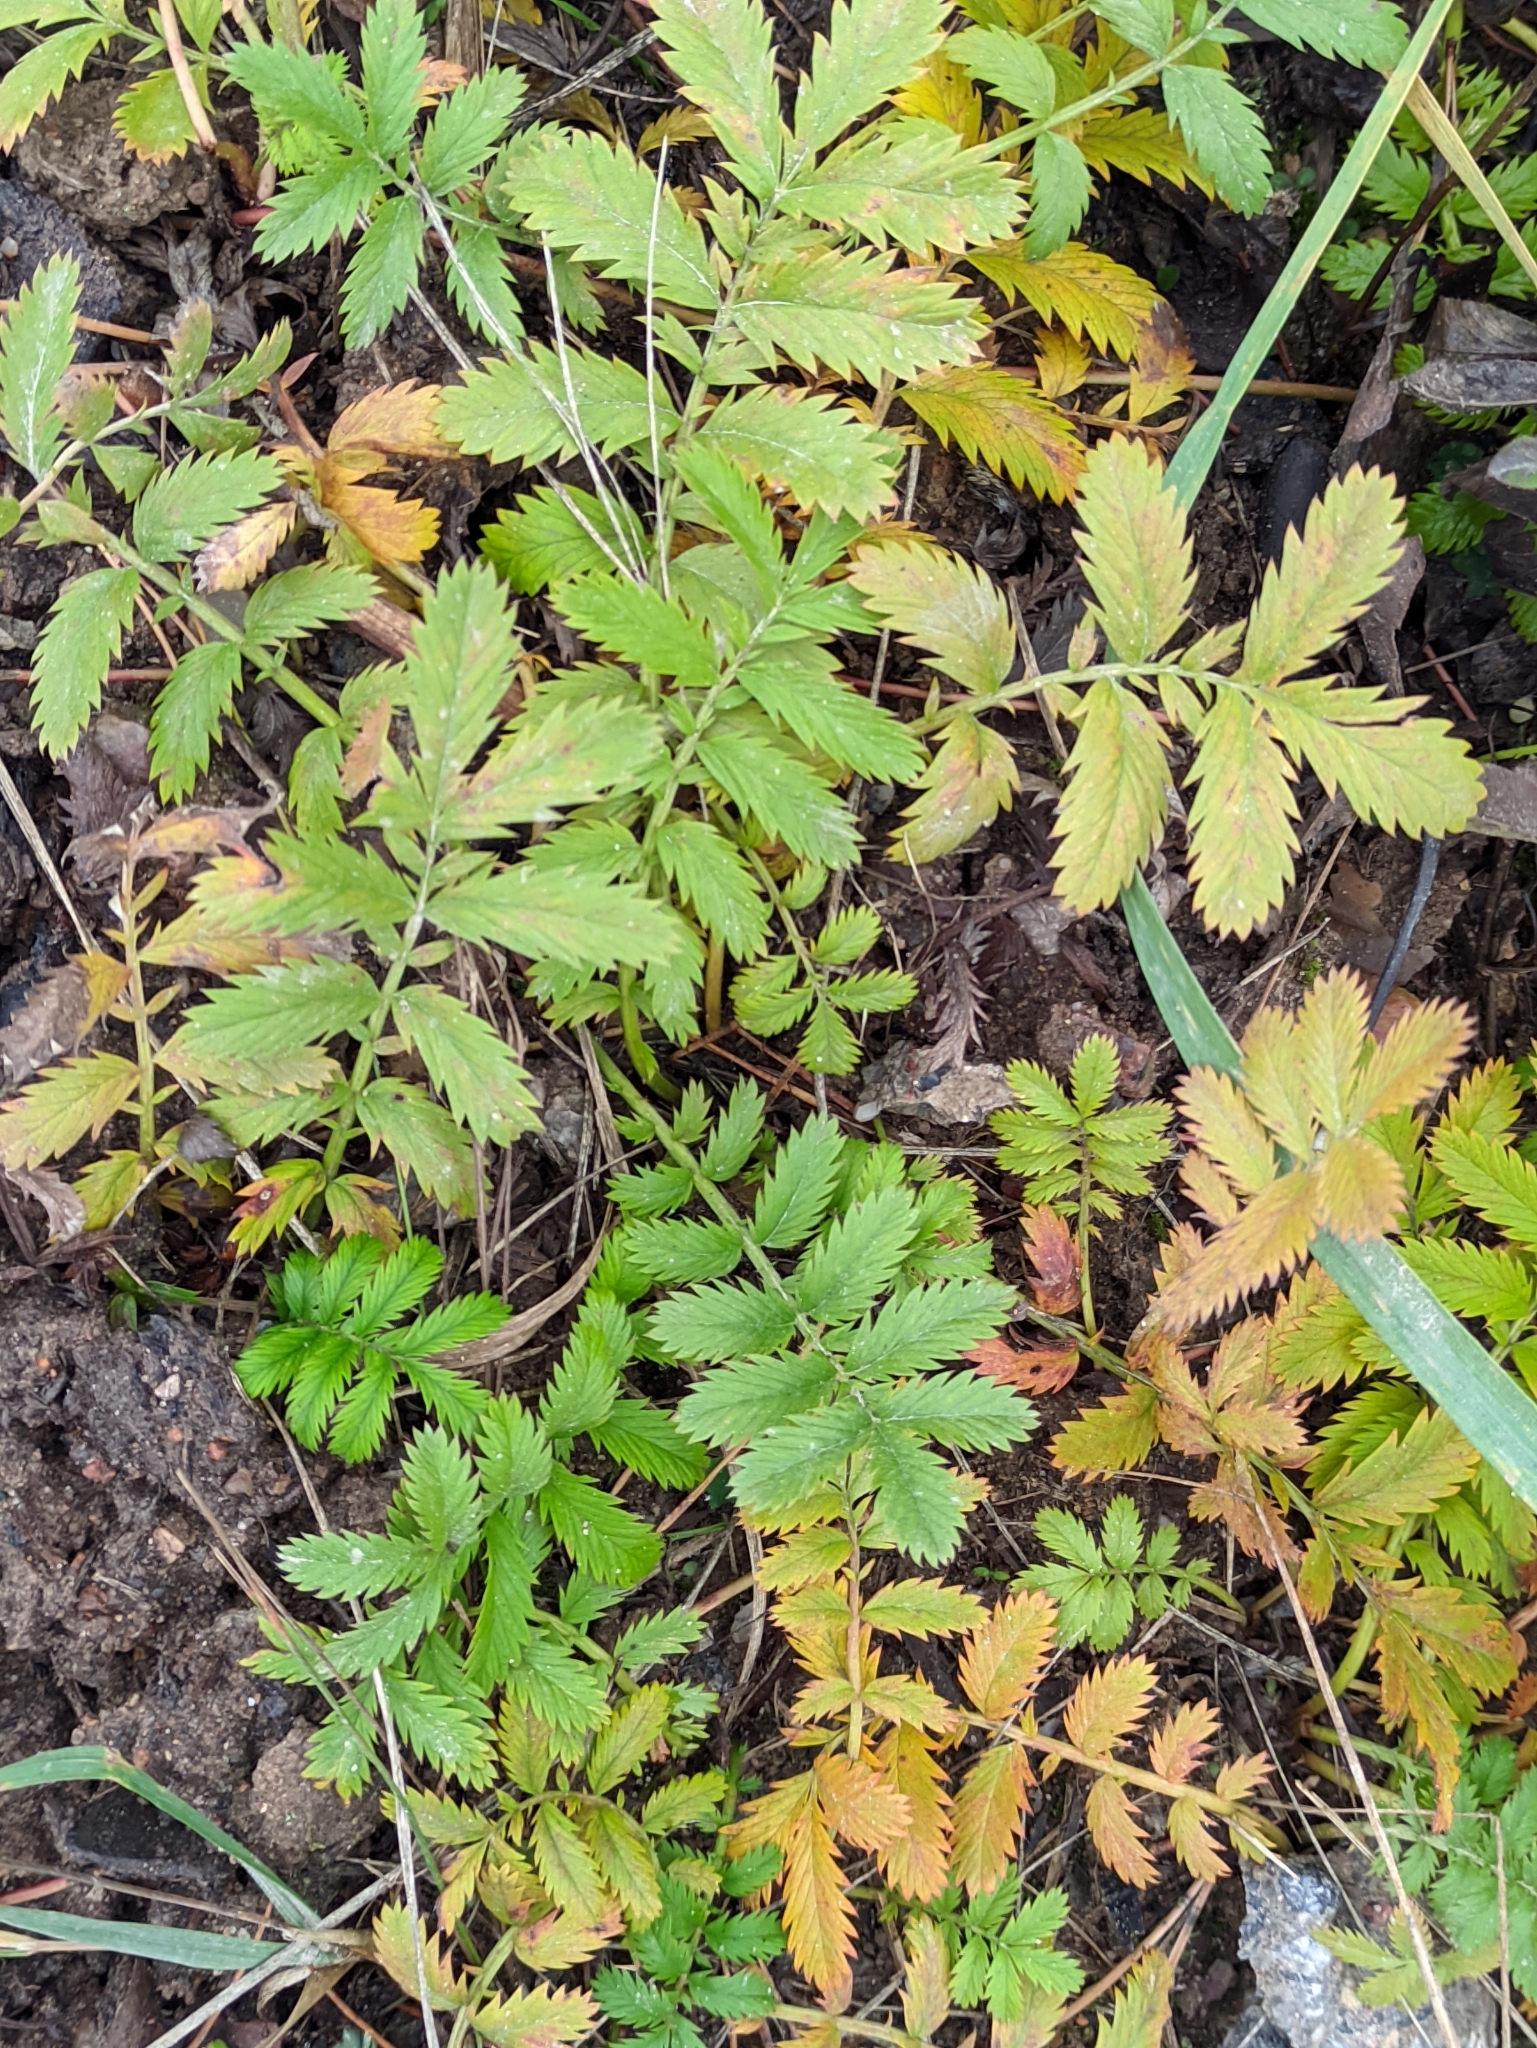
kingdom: Plantae
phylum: Tracheophyta
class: Magnoliopsida
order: Rosales
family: Rosaceae
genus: Argentina
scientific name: Argentina anserina
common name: Common silverweed
